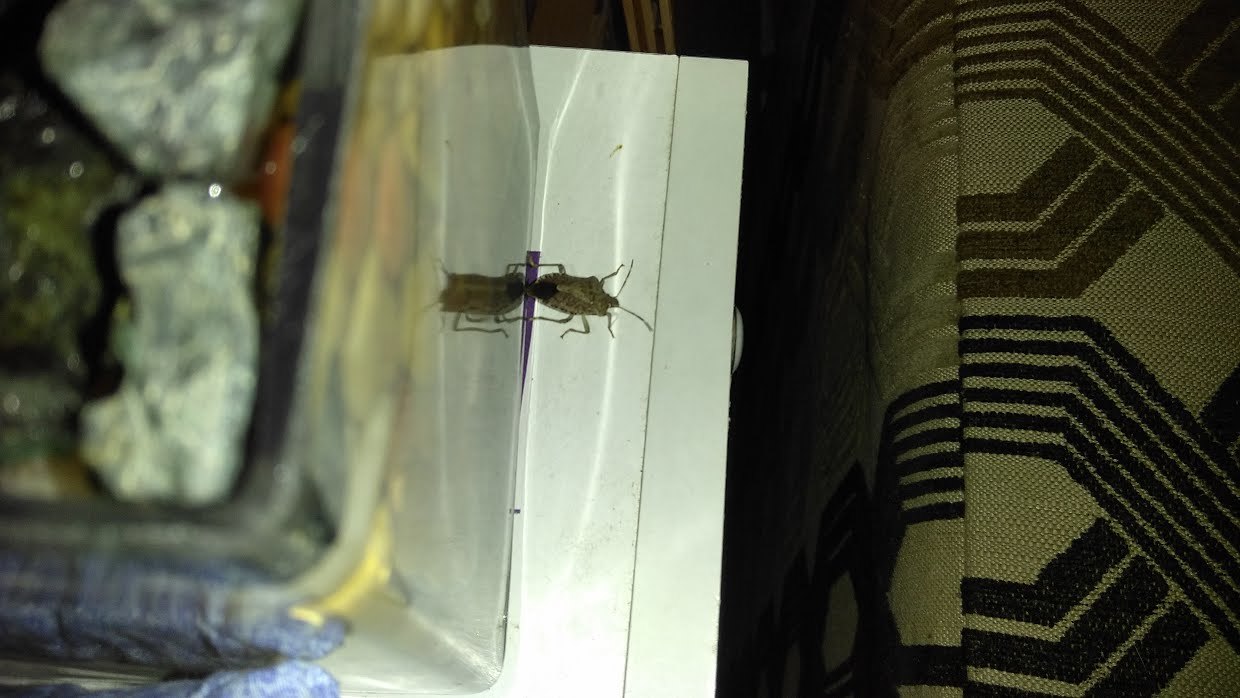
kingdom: Animalia
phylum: Arthropoda
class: Insecta
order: Hemiptera
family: Pentatomidae
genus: Halyomorpha
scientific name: Halyomorpha halys
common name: Brown marmorated stink bug
